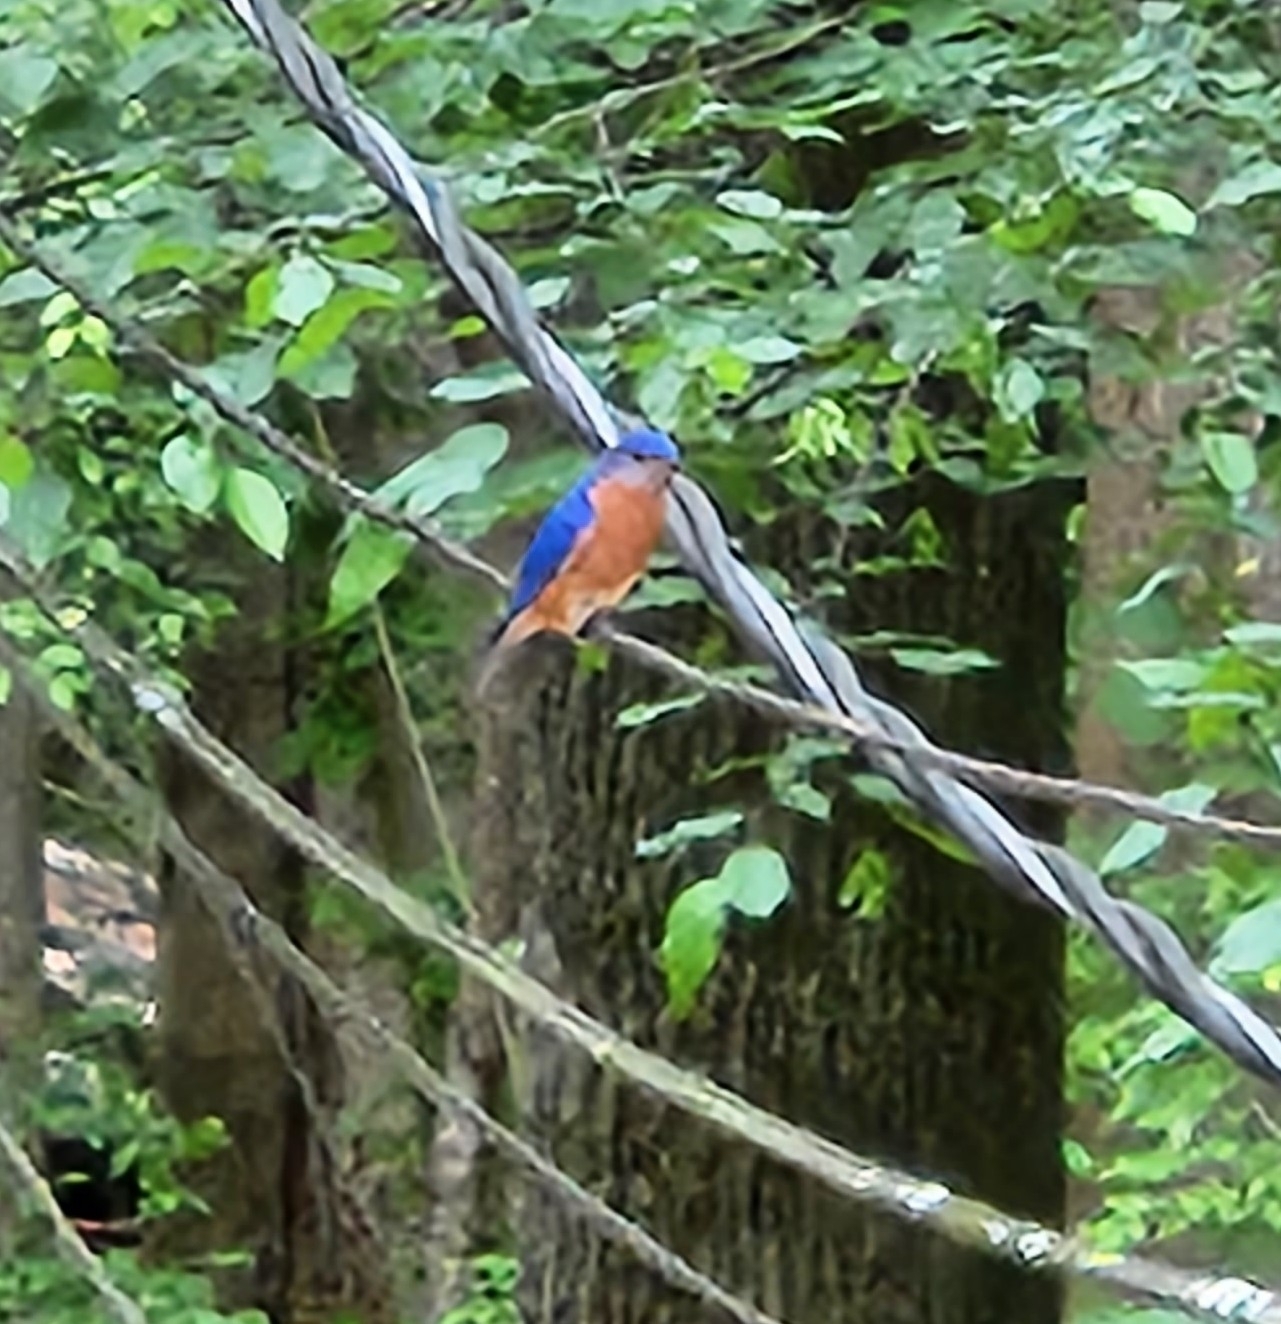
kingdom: Animalia
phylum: Chordata
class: Aves
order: Passeriformes
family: Turdidae
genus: Sialia
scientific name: Sialia sialis
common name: Eastern bluebird
